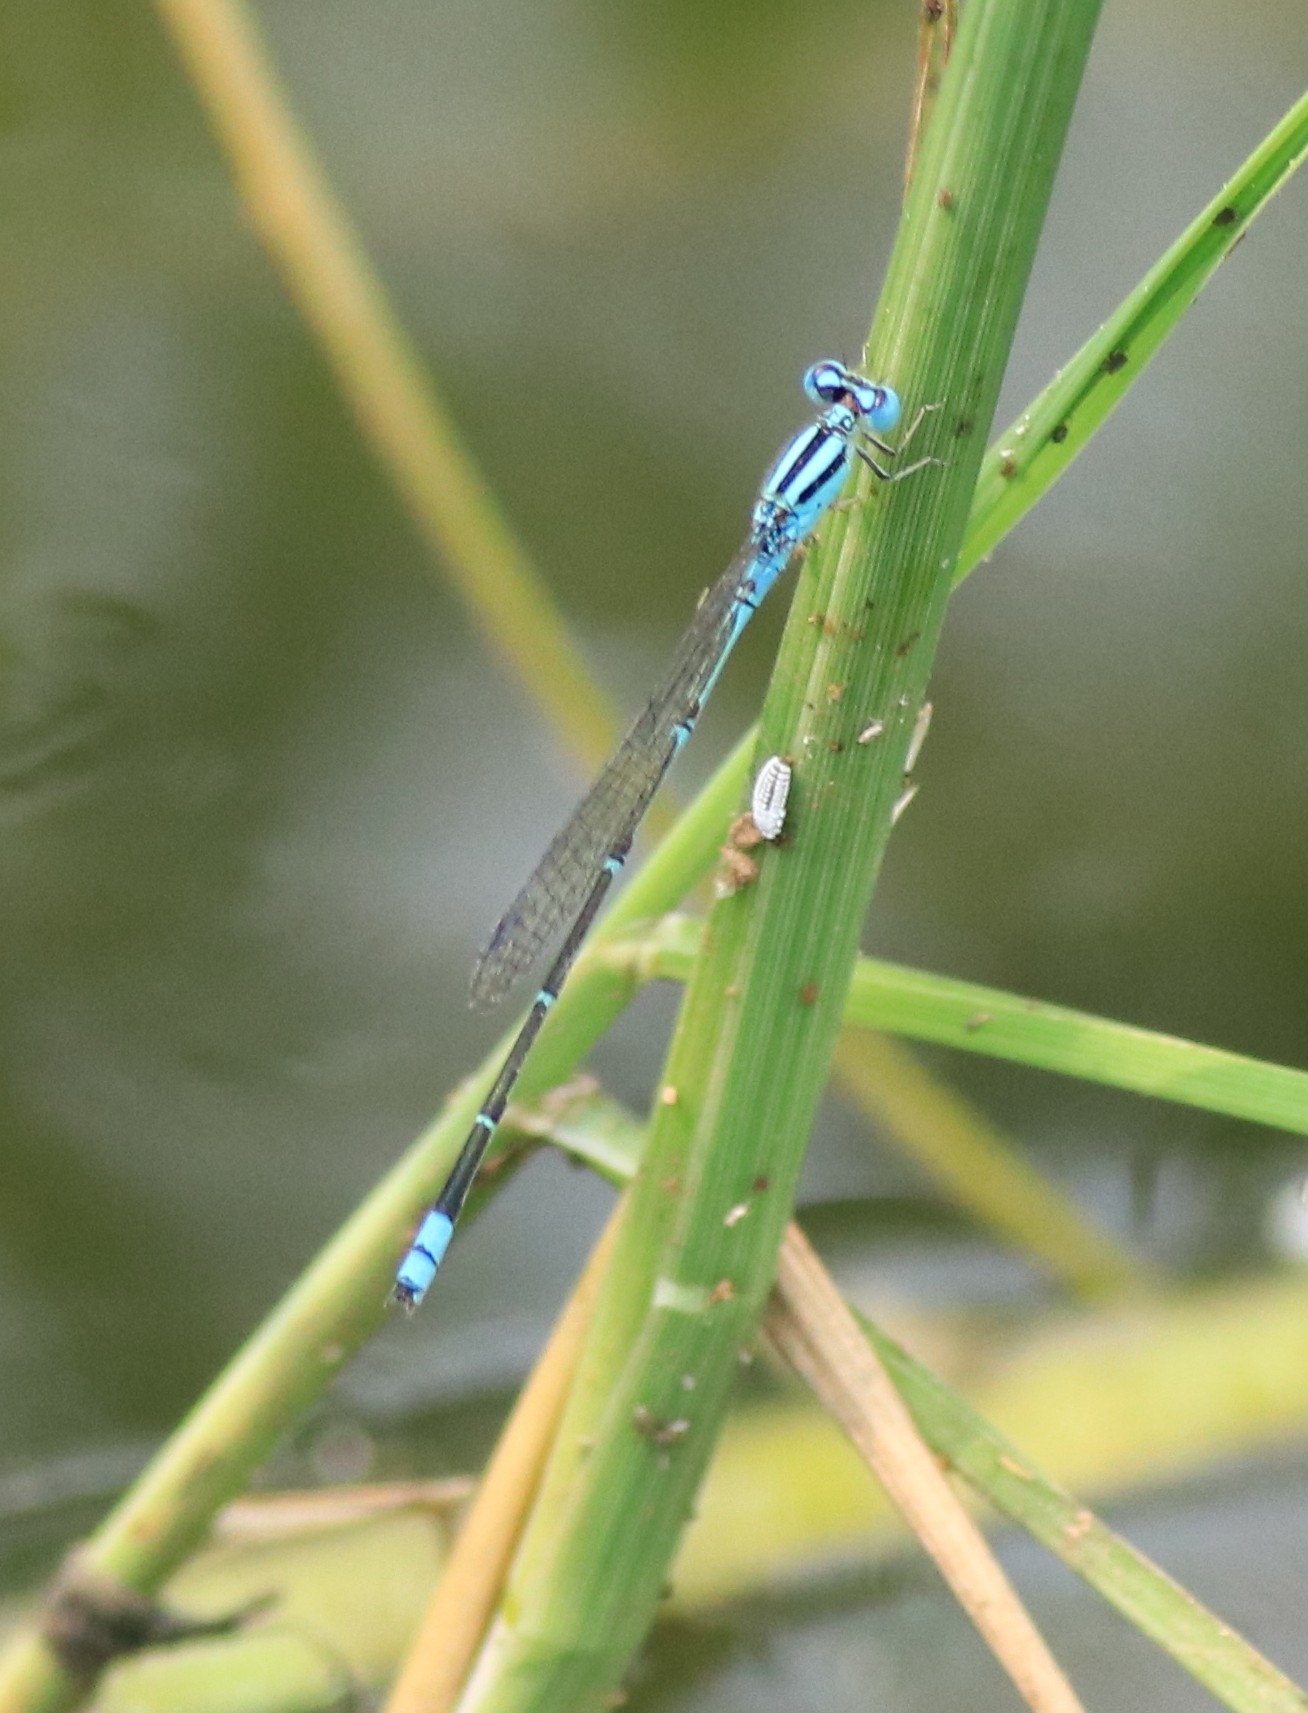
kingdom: Animalia
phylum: Arthropoda
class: Insecta
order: Odonata
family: Coenagrionidae
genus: Pseudagrion
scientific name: Pseudagrion microcephalum
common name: Blue riverdamsel
